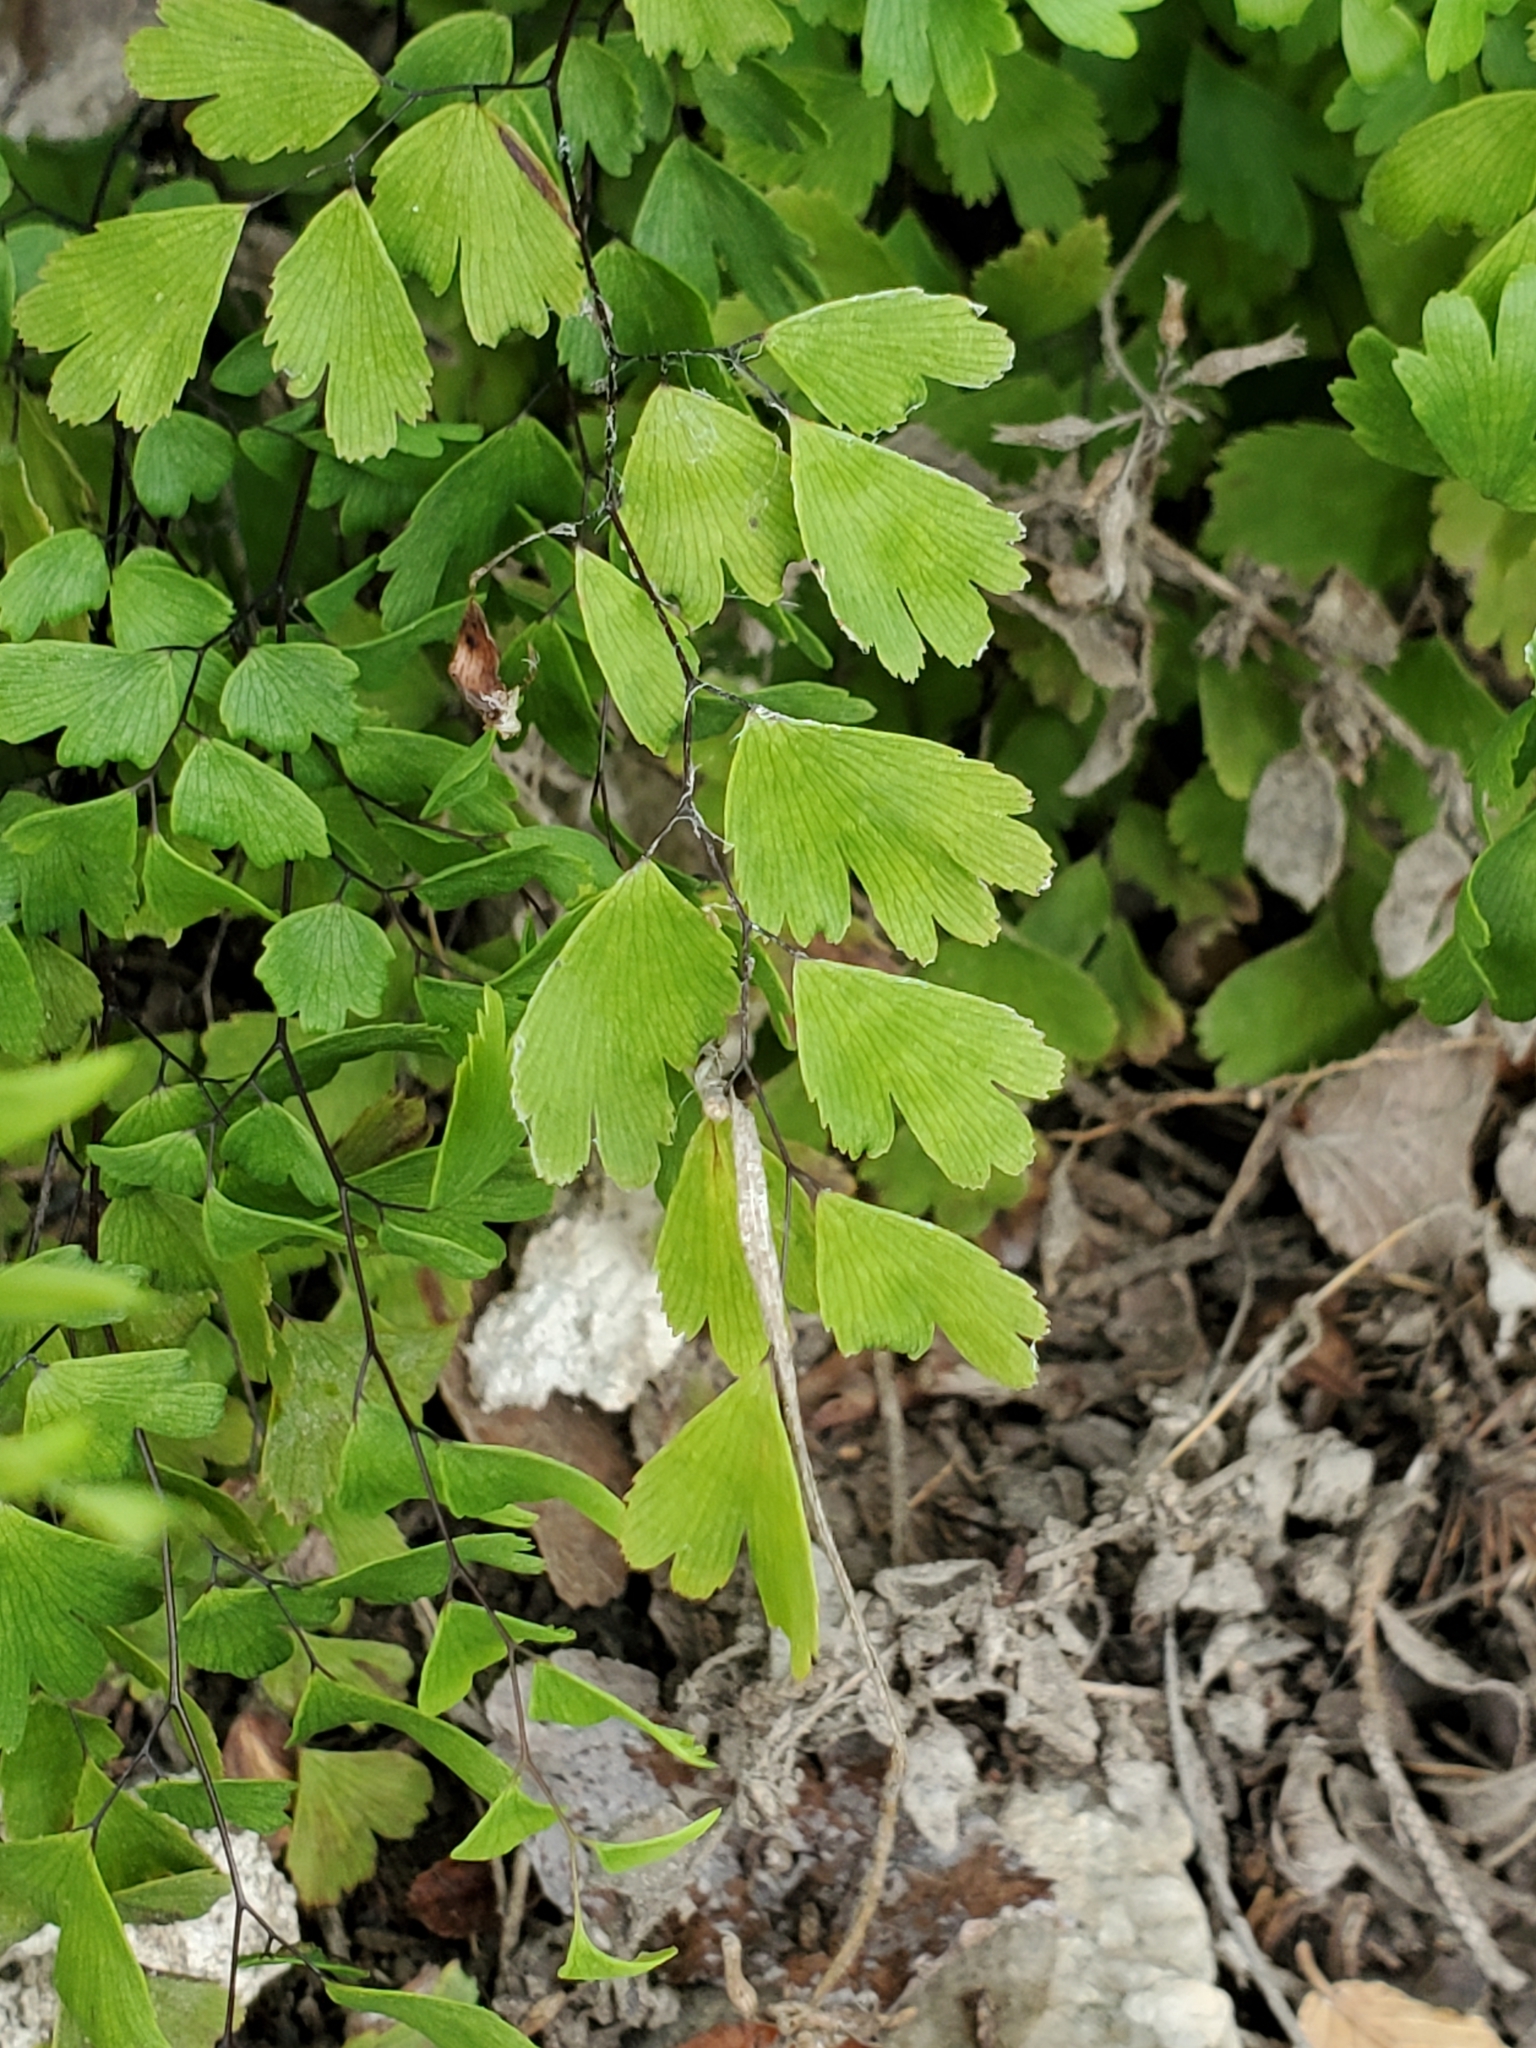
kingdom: Plantae
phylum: Tracheophyta
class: Polypodiopsida
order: Polypodiales
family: Pteridaceae
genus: Adiantum
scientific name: Adiantum capillus-veneris
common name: Maidenhair fern
